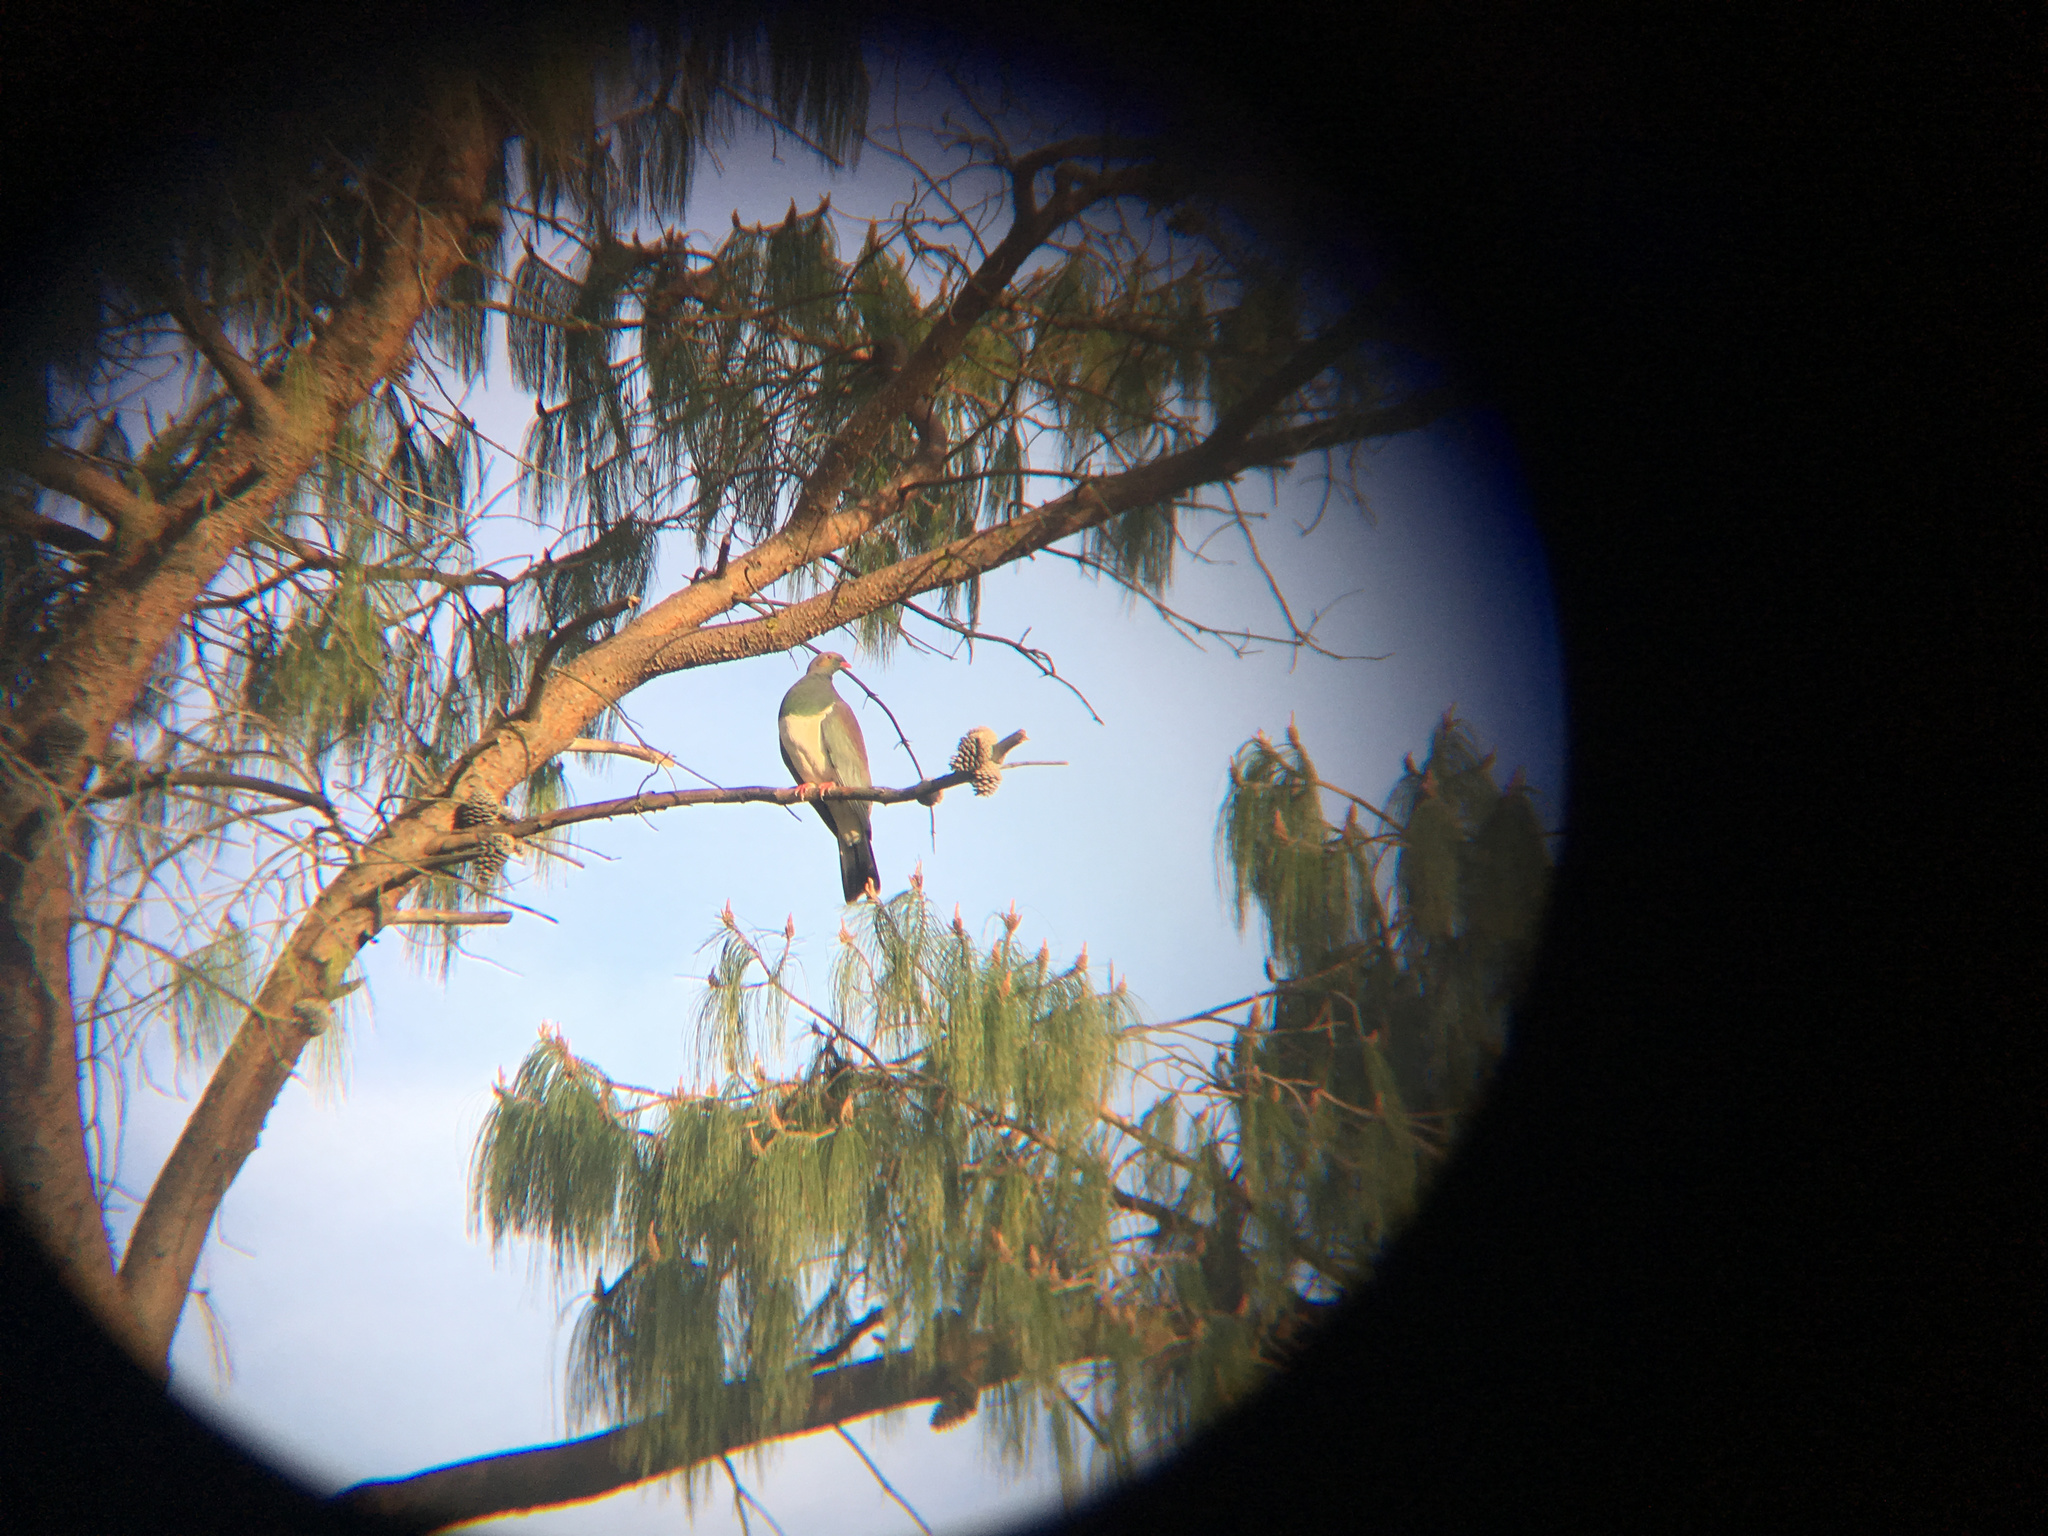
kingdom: Animalia
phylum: Chordata
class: Aves
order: Columbiformes
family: Columbidae
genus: Hemiphaga
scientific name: Hemiphaga novaeseelandiae
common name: New zealand pigeon
